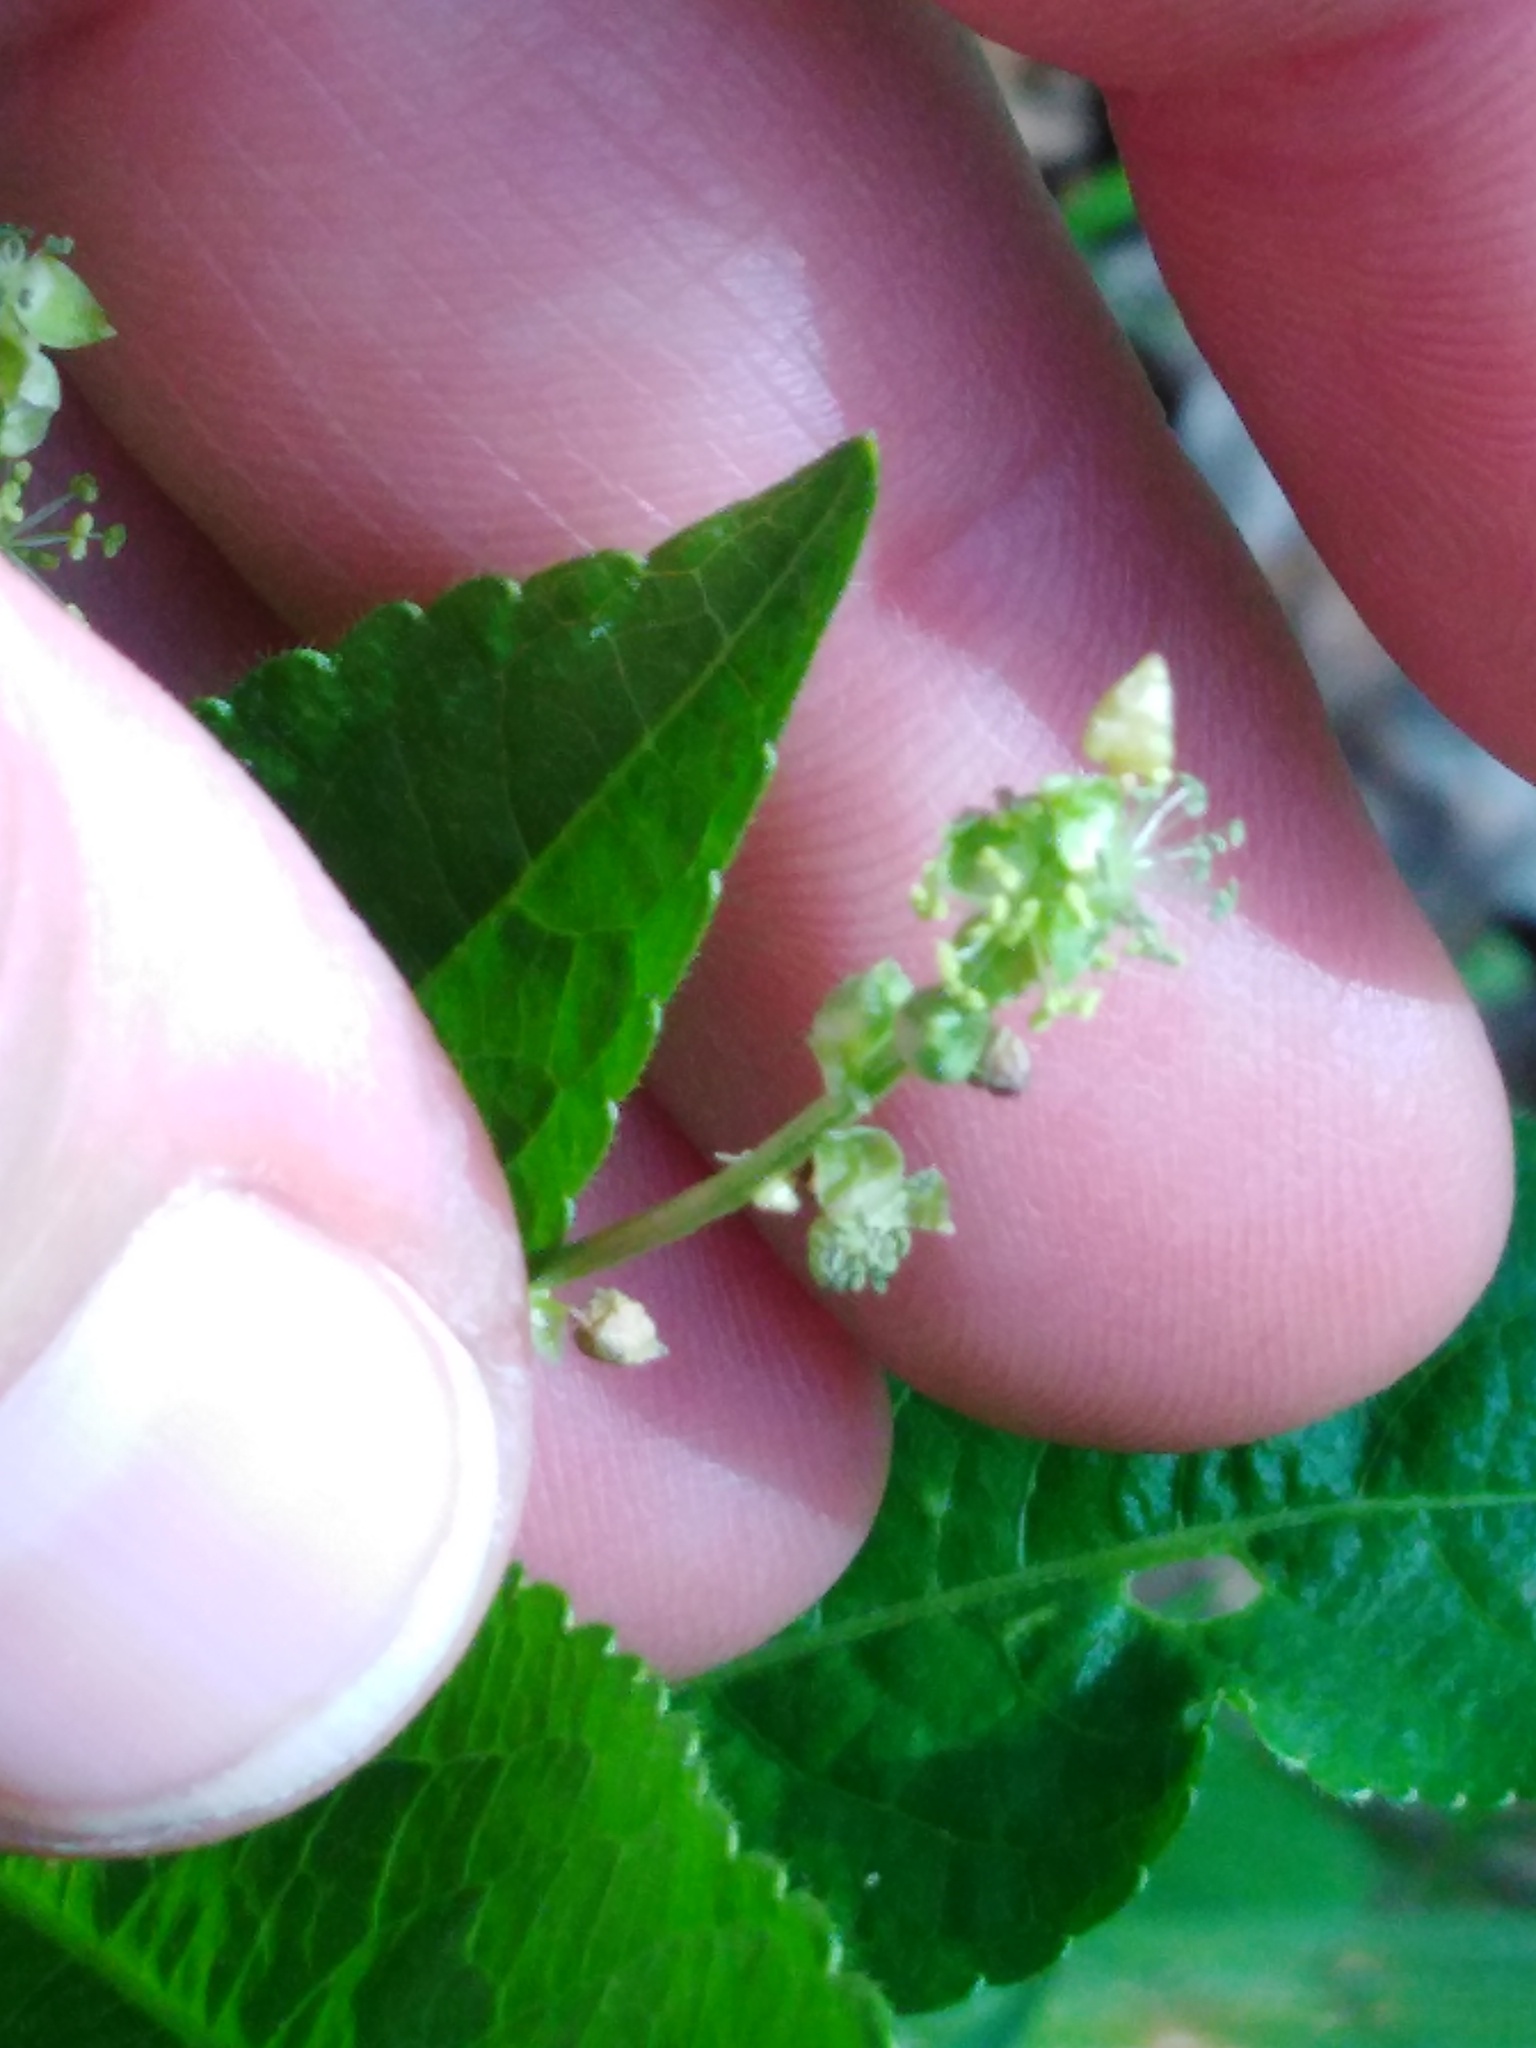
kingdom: Plantae
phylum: Tracheophyta
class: Magnoliopsida
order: Malpighiales
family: Euphorbiaceae
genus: Mercurialis
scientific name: Mercurialis perennis
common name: Dog mercury
